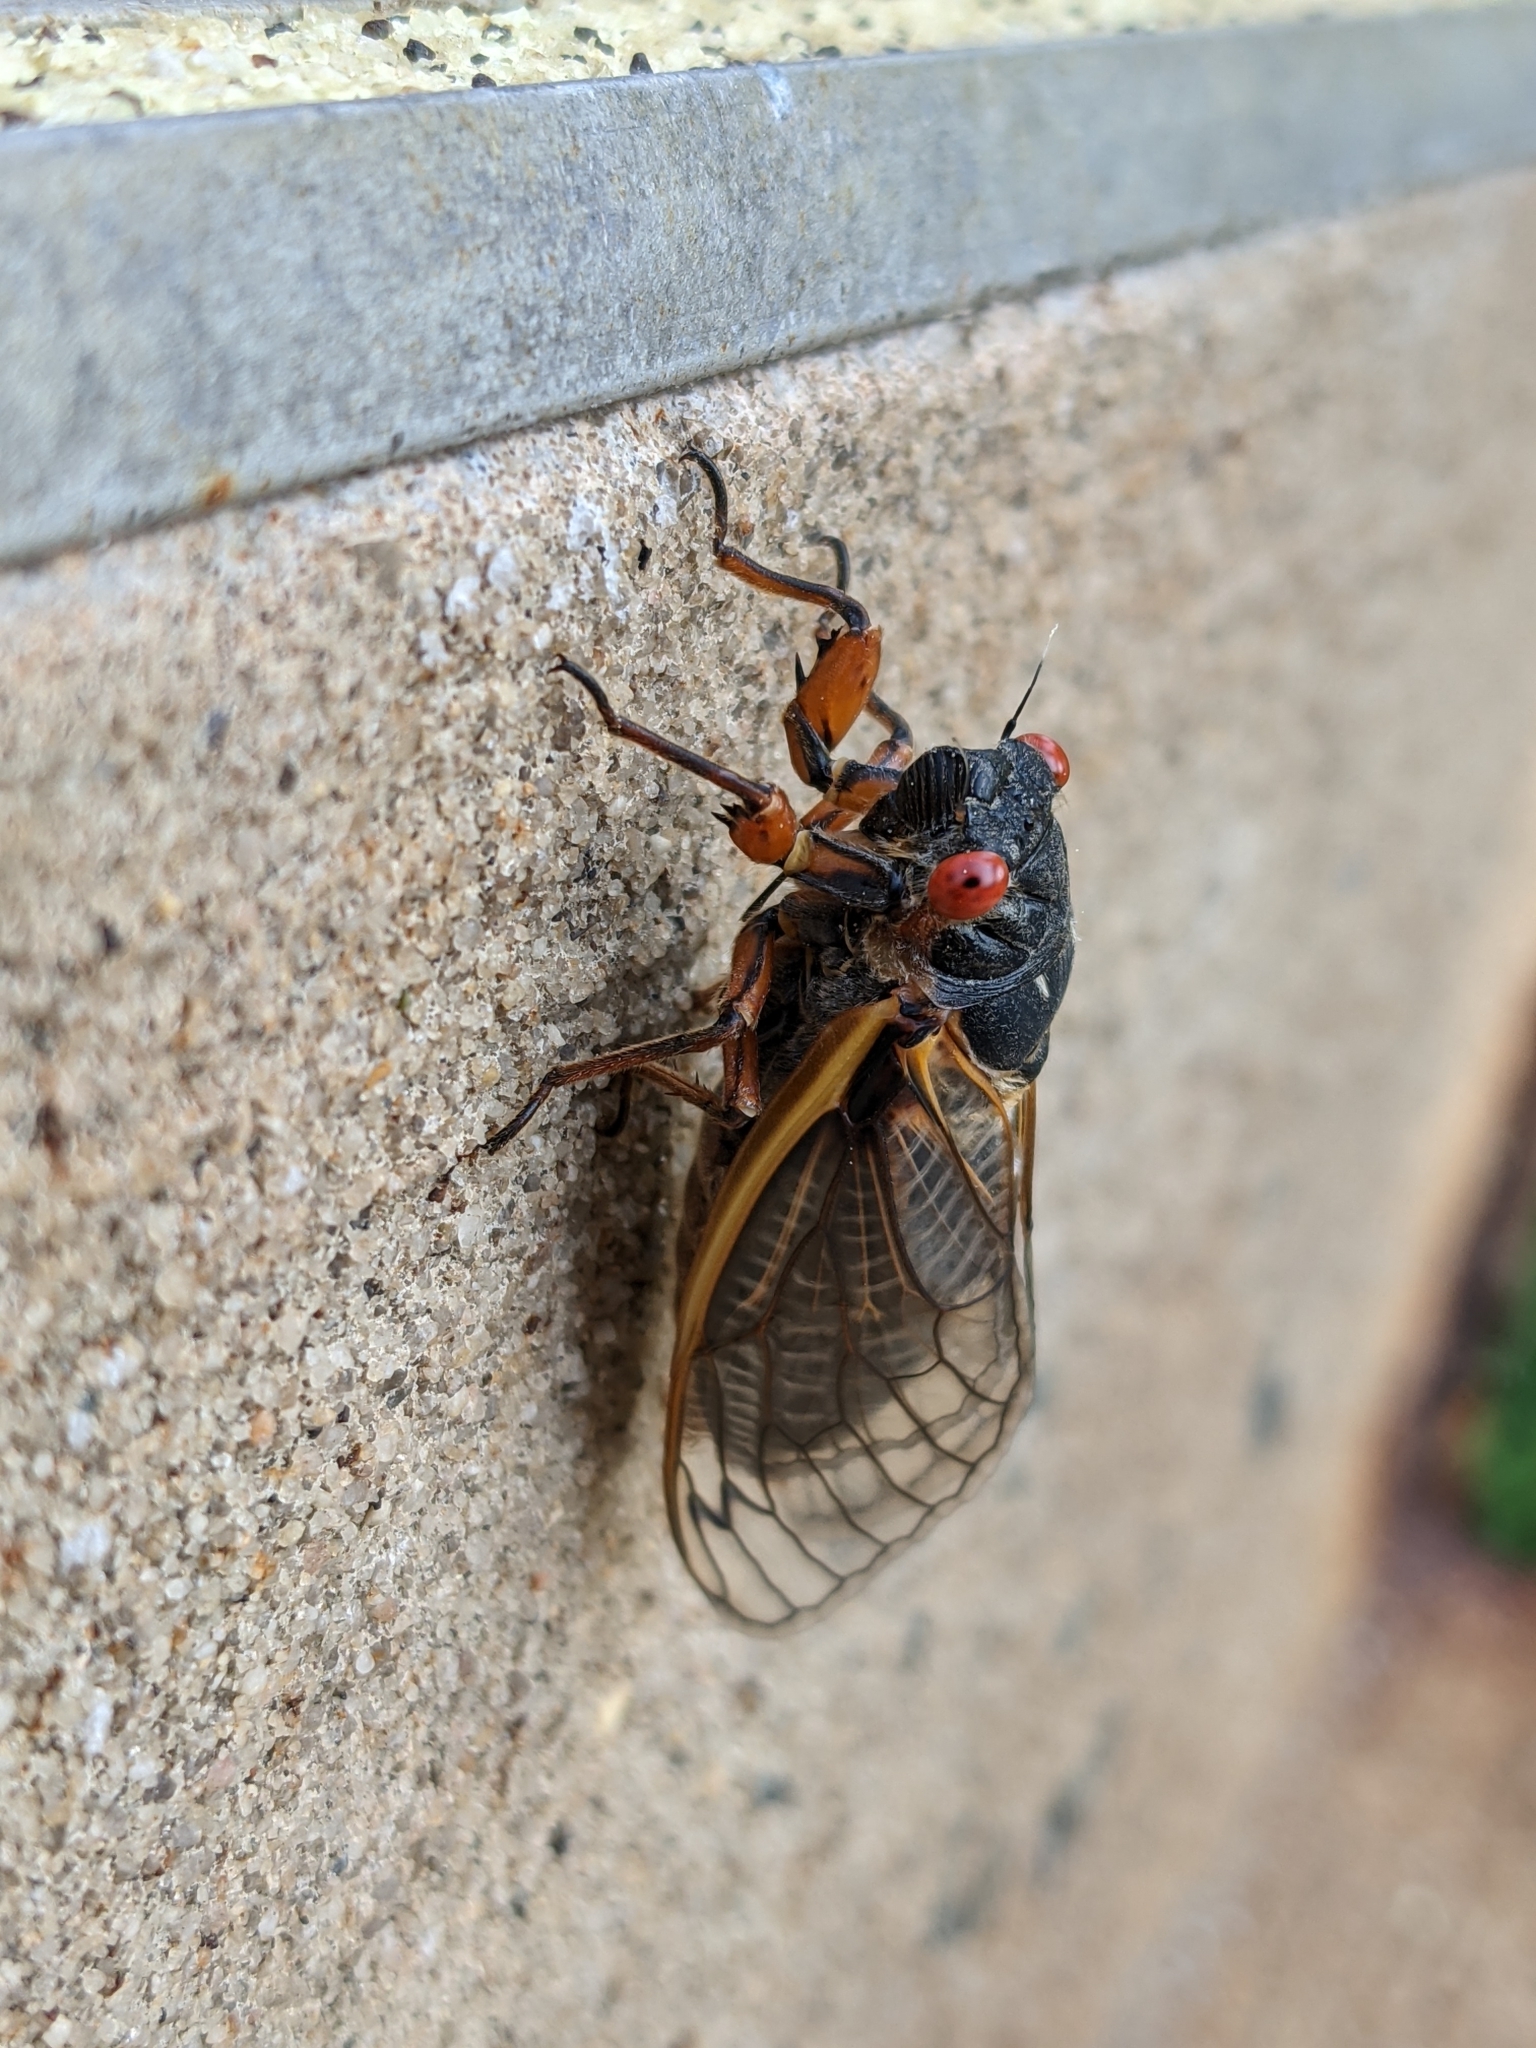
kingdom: Animalia
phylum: Arthropoda
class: Insecta
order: Hemiptera
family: Cicadidae
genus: Magicicada
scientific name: Magicicada septendecim
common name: Periodical cicada
